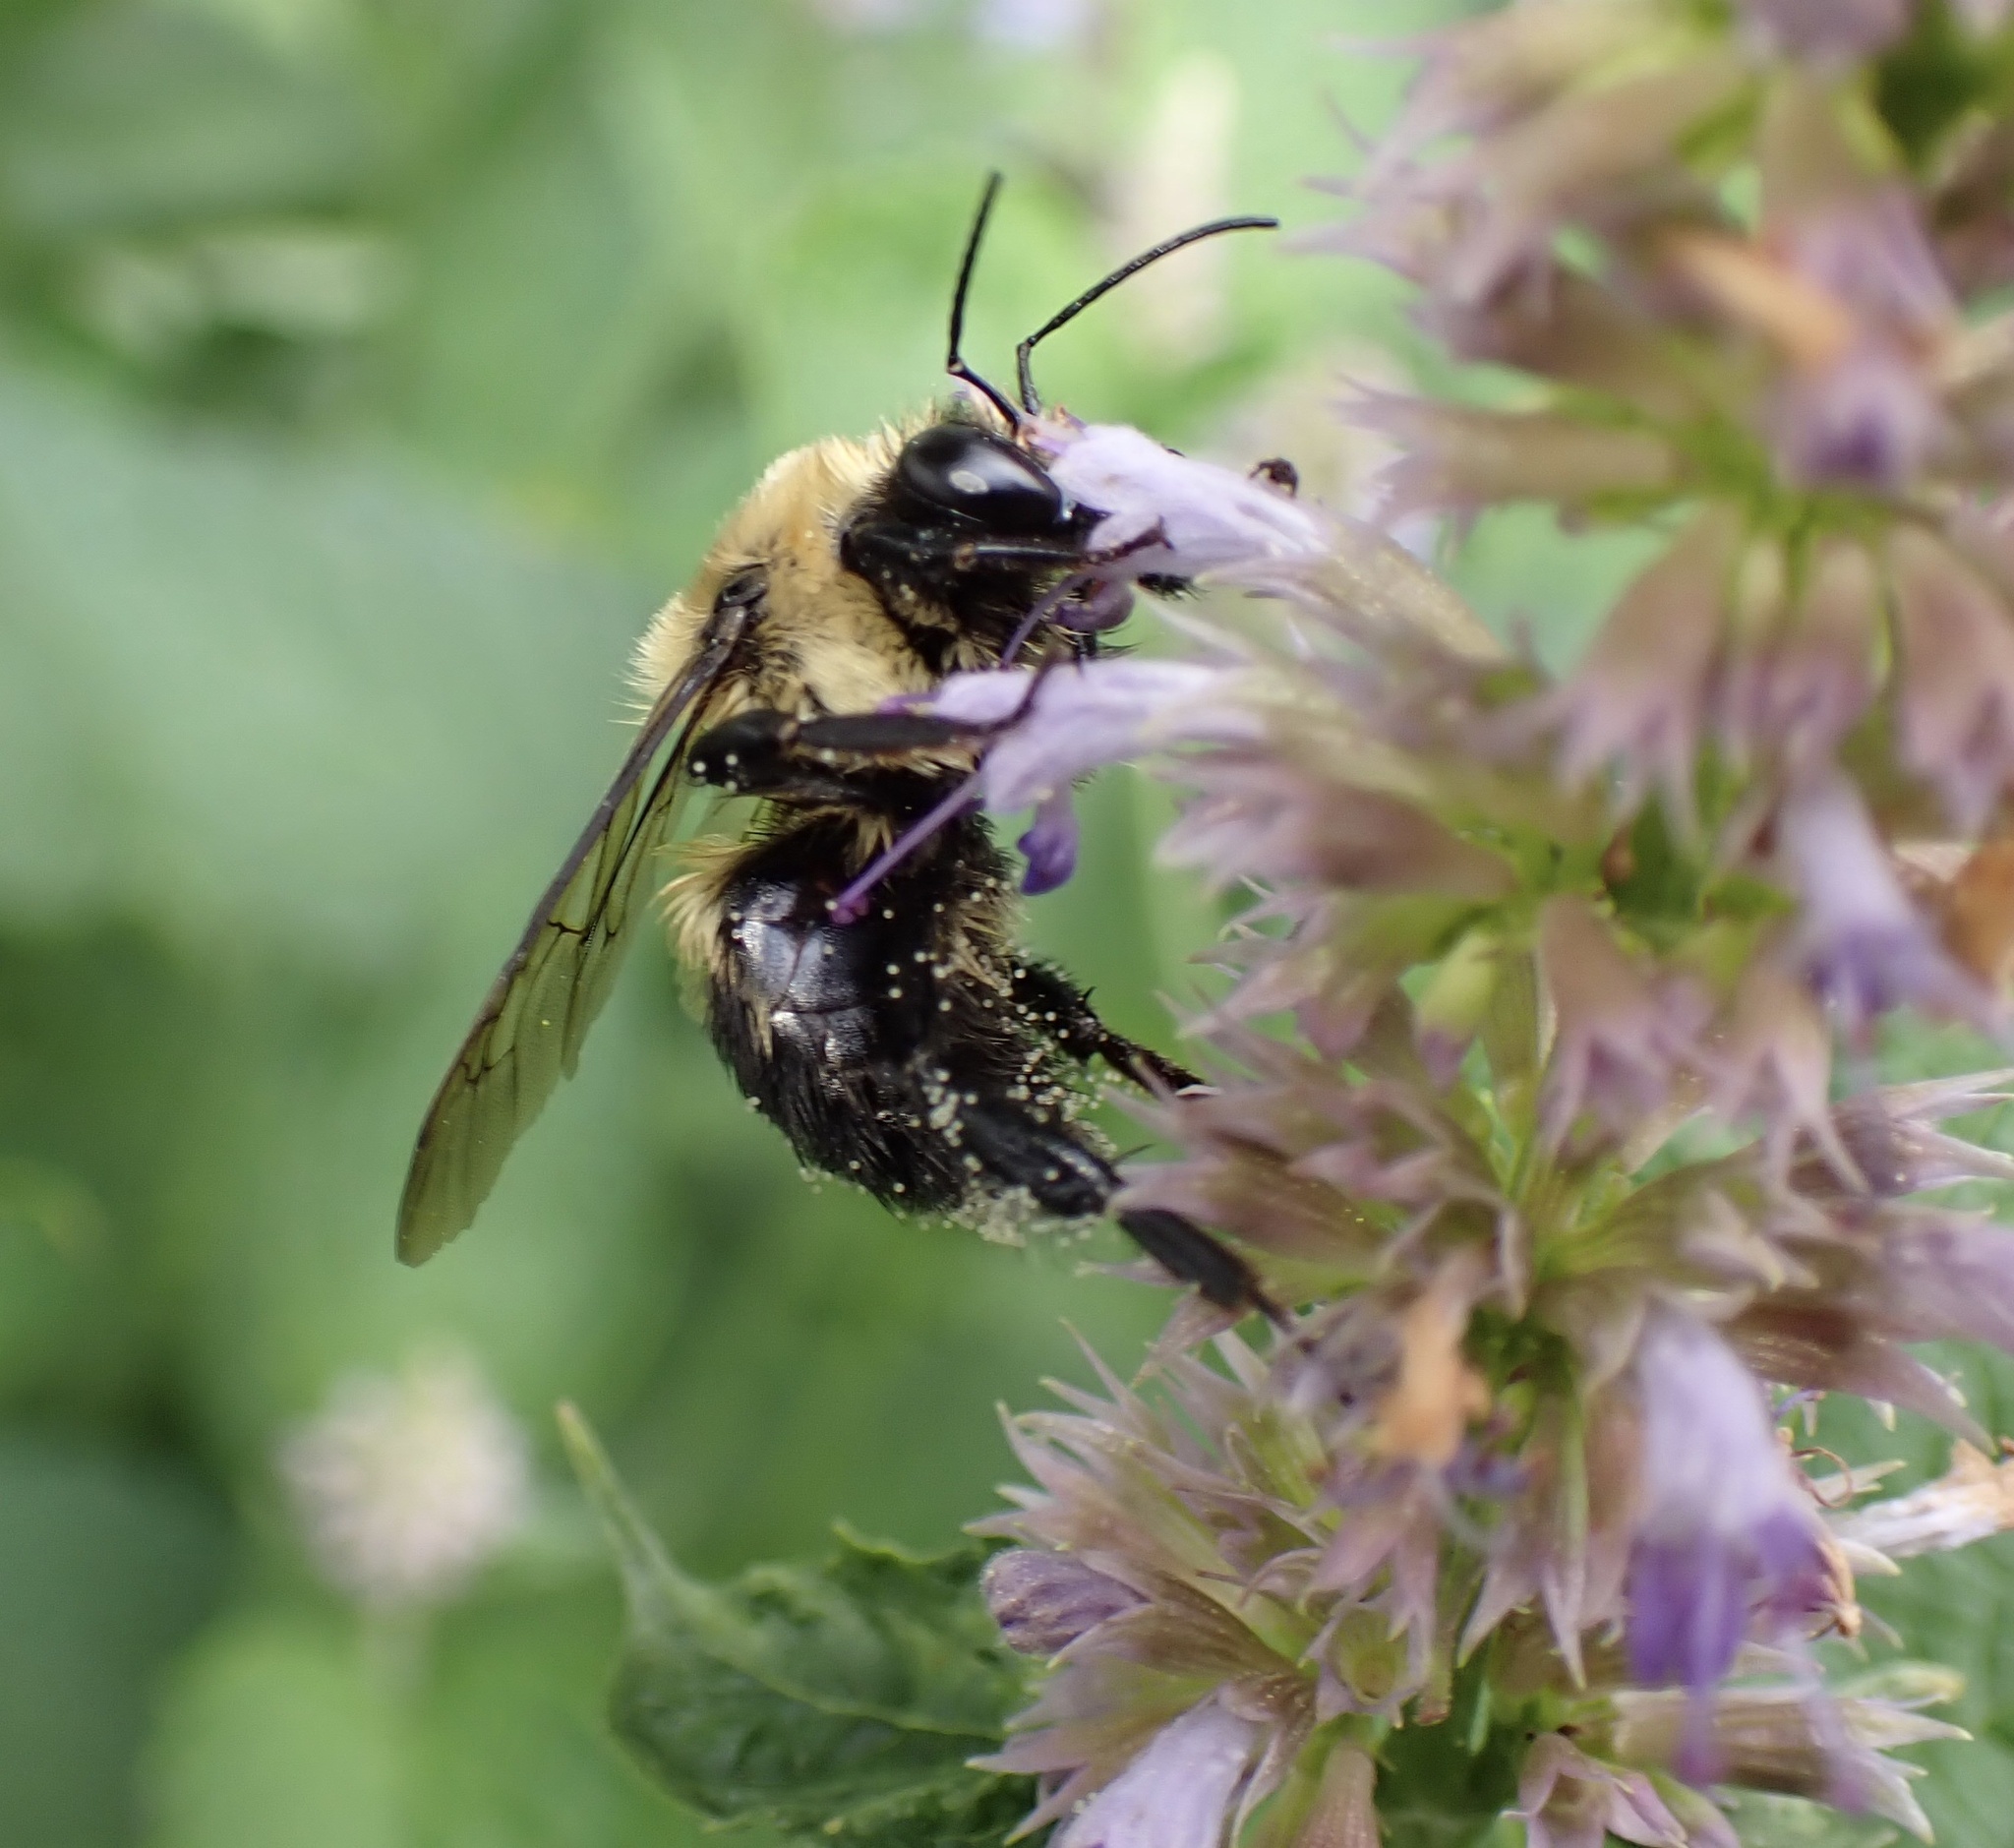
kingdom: Animalia
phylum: Arthropoda
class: Insecta
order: Hymenoptera
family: Apidae
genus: Bombus
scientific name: Bombus griseocollis
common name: Brown-belted bumble bee
